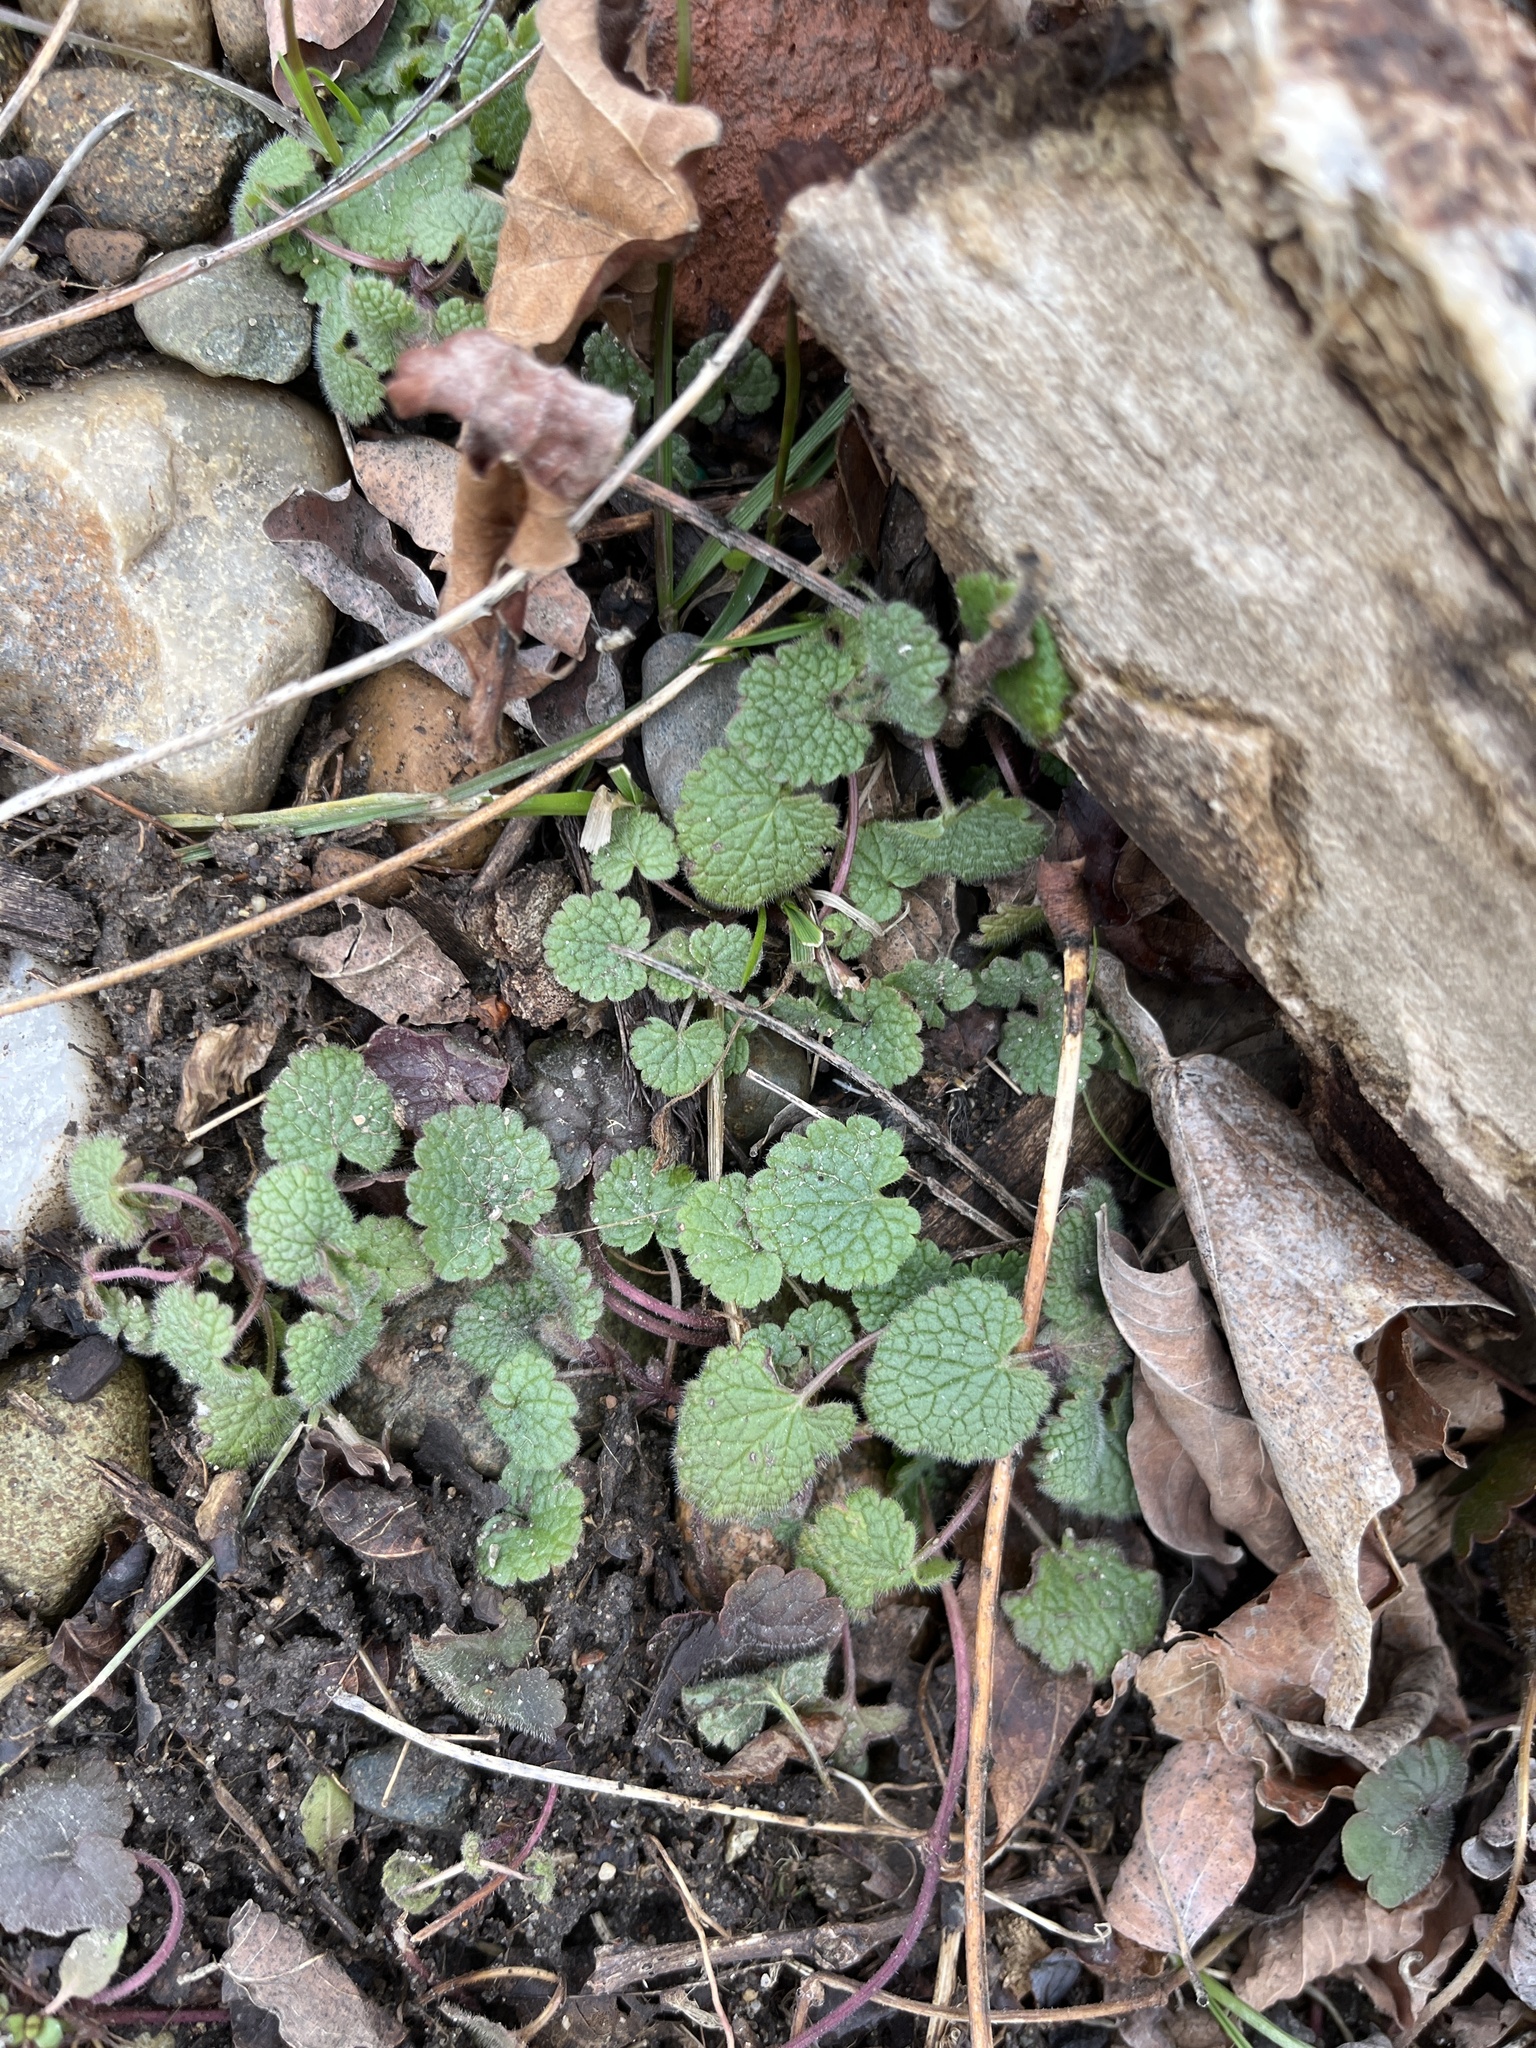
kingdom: Plantae
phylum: Tracheophyta
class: Magnoliopsida
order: Lamiales
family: Lamiaceae
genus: Lamium
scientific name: Lamium purpureum
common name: Red dead-nettle
